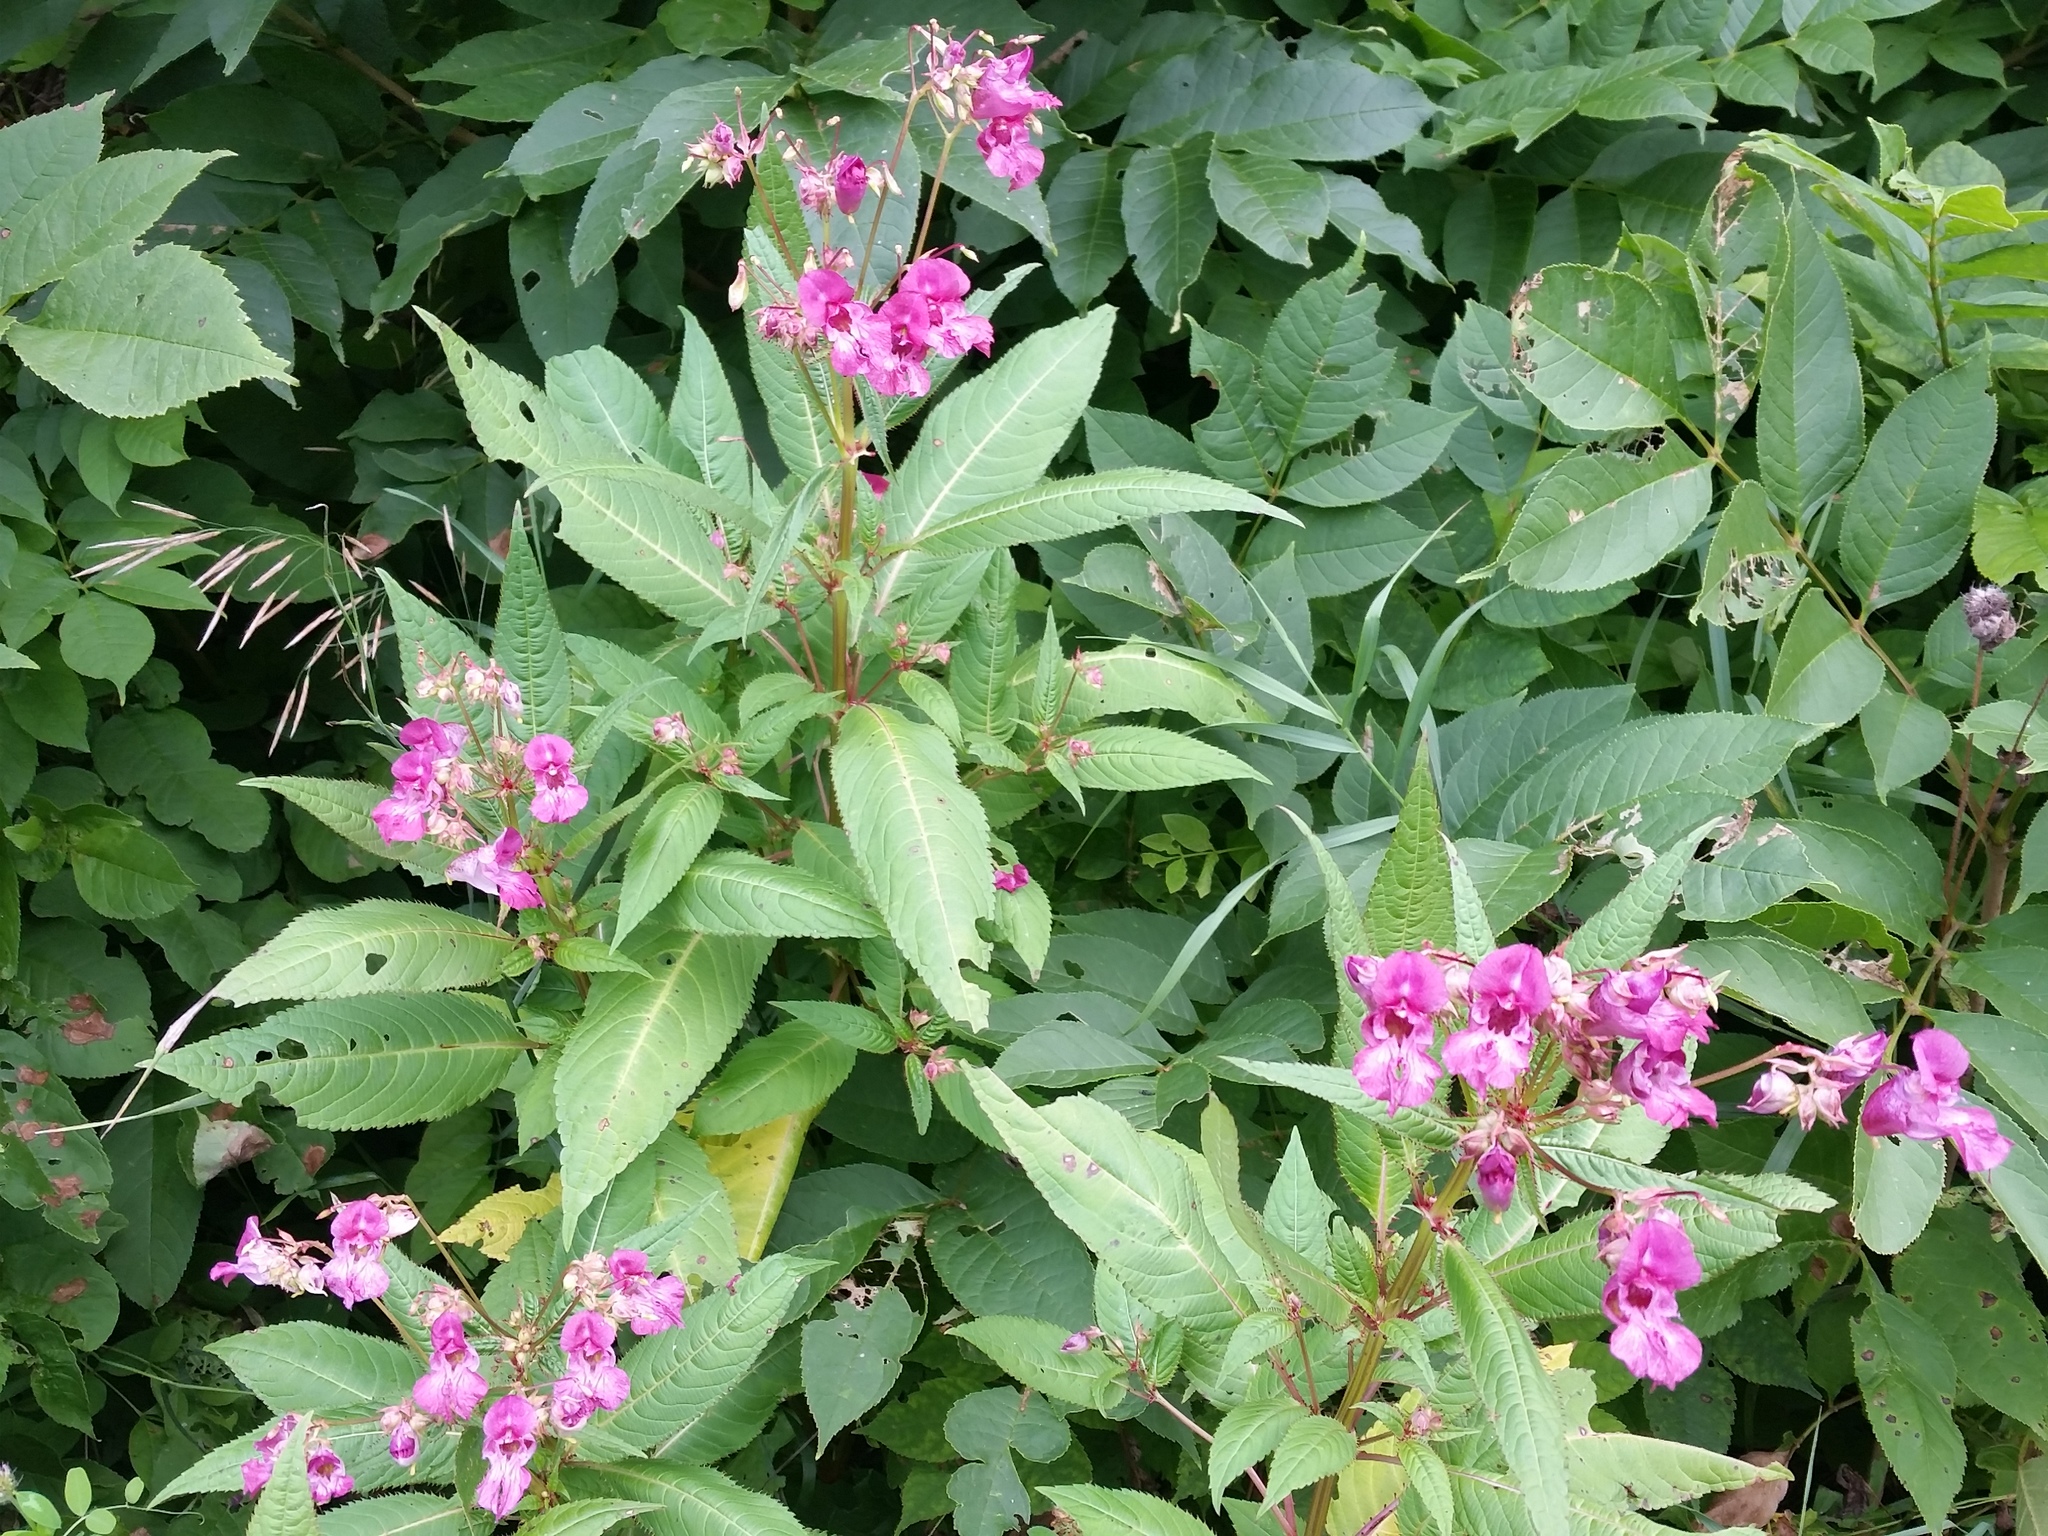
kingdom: Plantae
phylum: Tracheophyta
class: Magnoliopsida
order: Ericales
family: Balsaminaceae
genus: Impatiens
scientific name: Impatiens glandulifera
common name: Himalayan balsam
